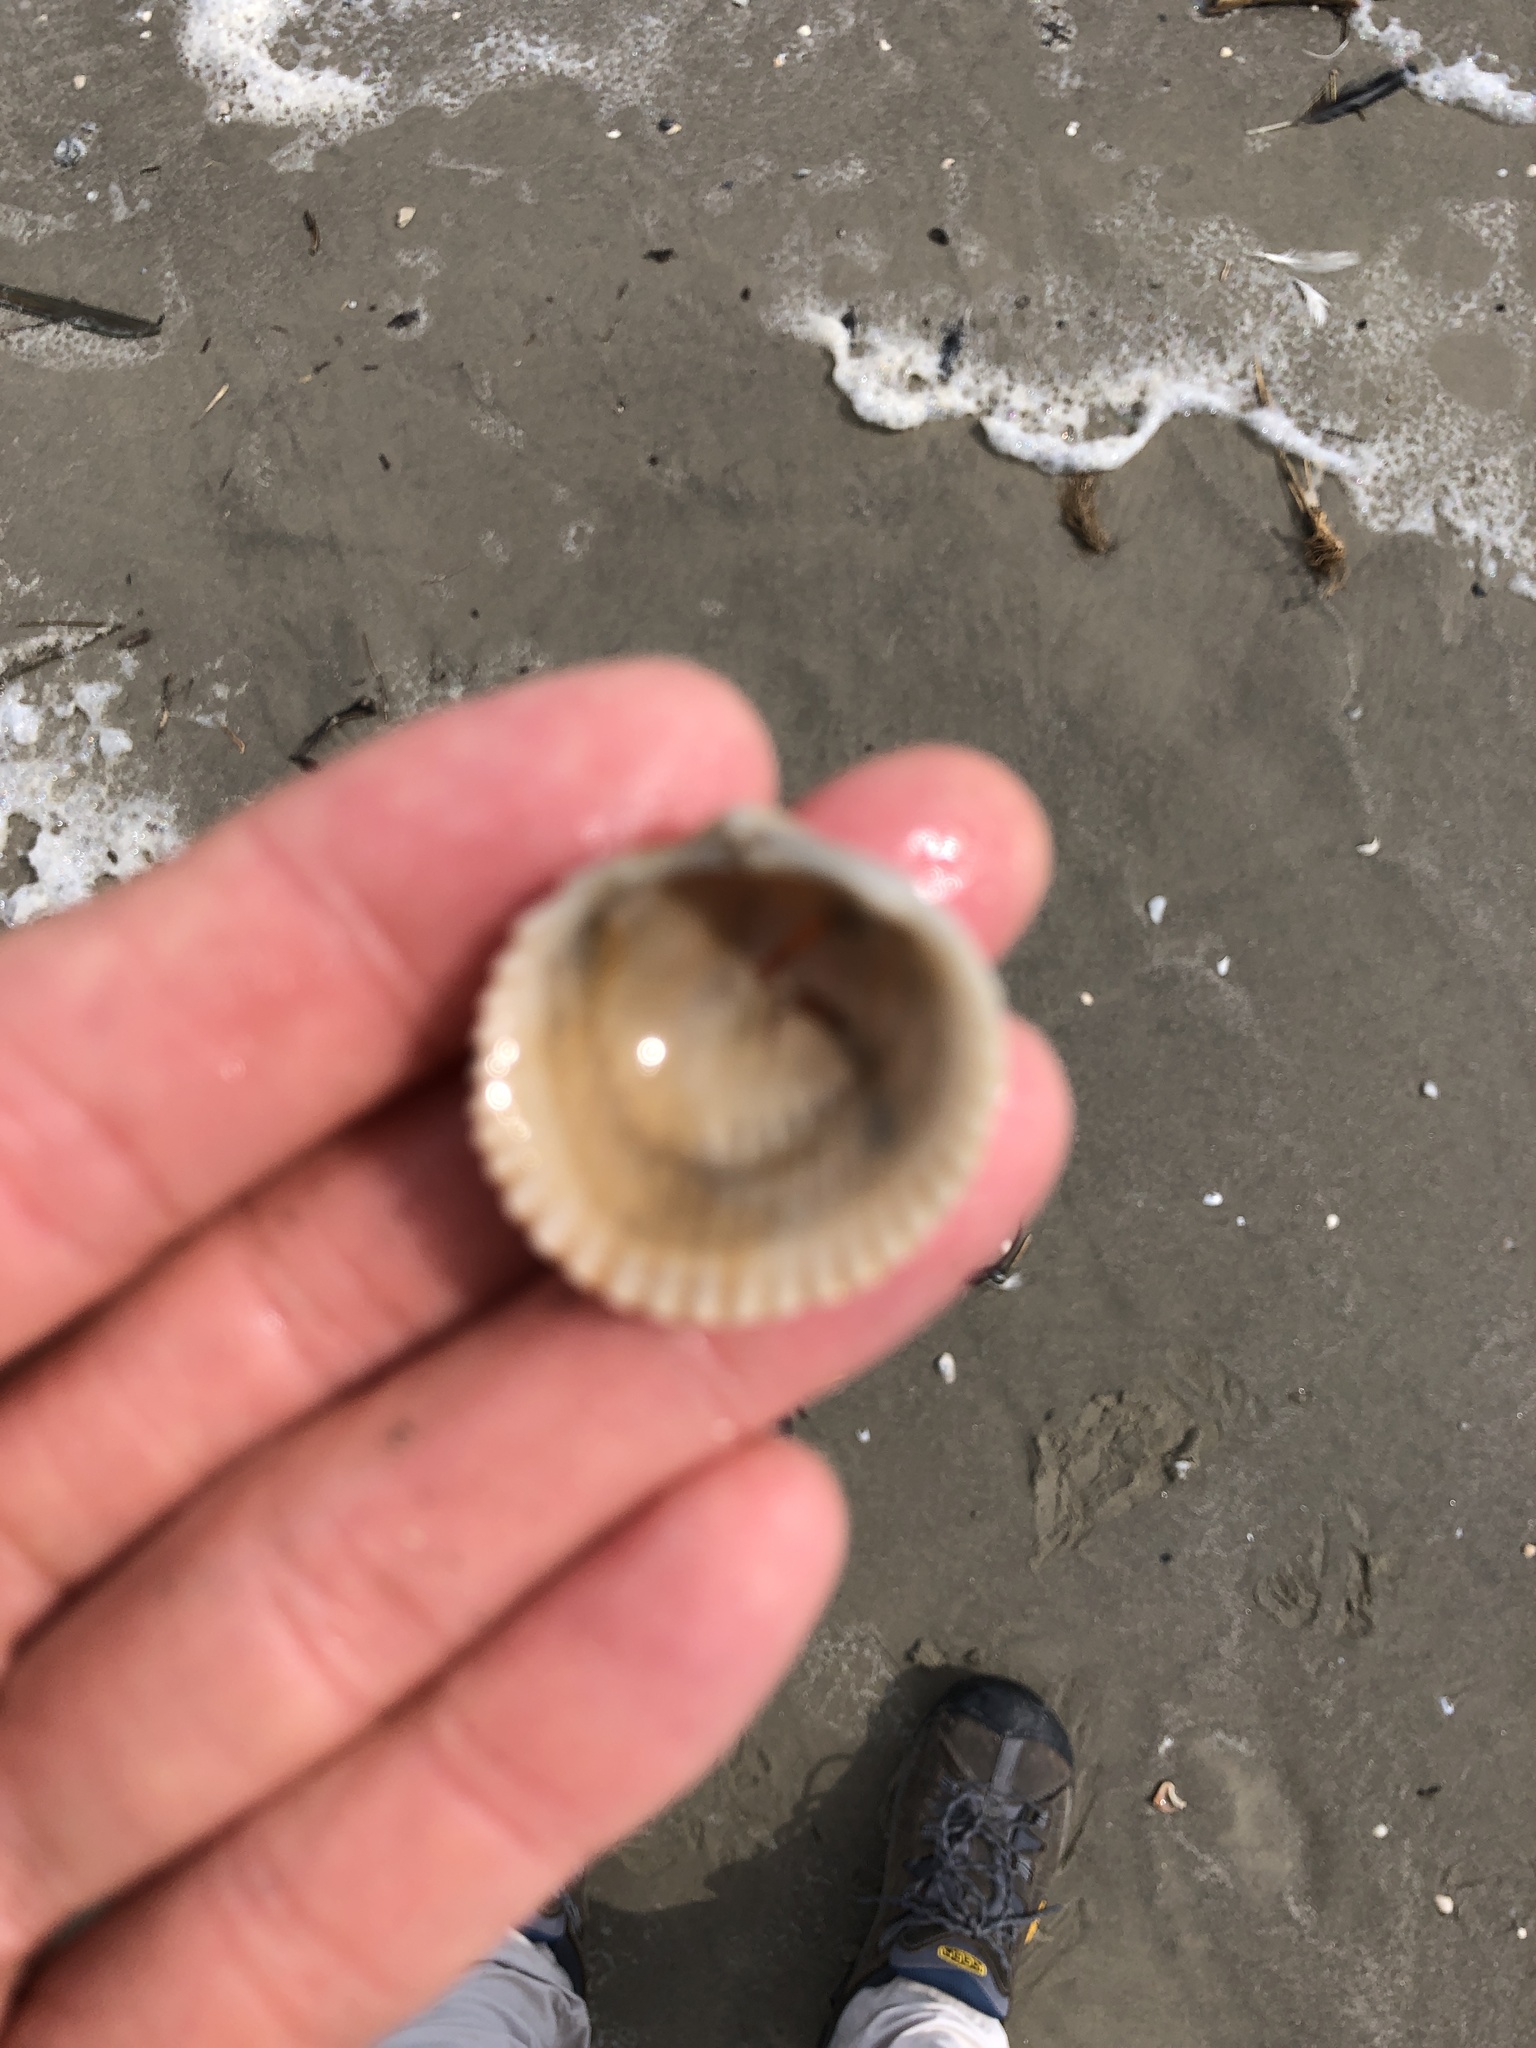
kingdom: Animalia
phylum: Mollusca
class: Bivalvia
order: Cardiida
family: Cardiidae
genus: Dallocardia
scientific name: Dallocardia muricata
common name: Yellow pricklycockle
